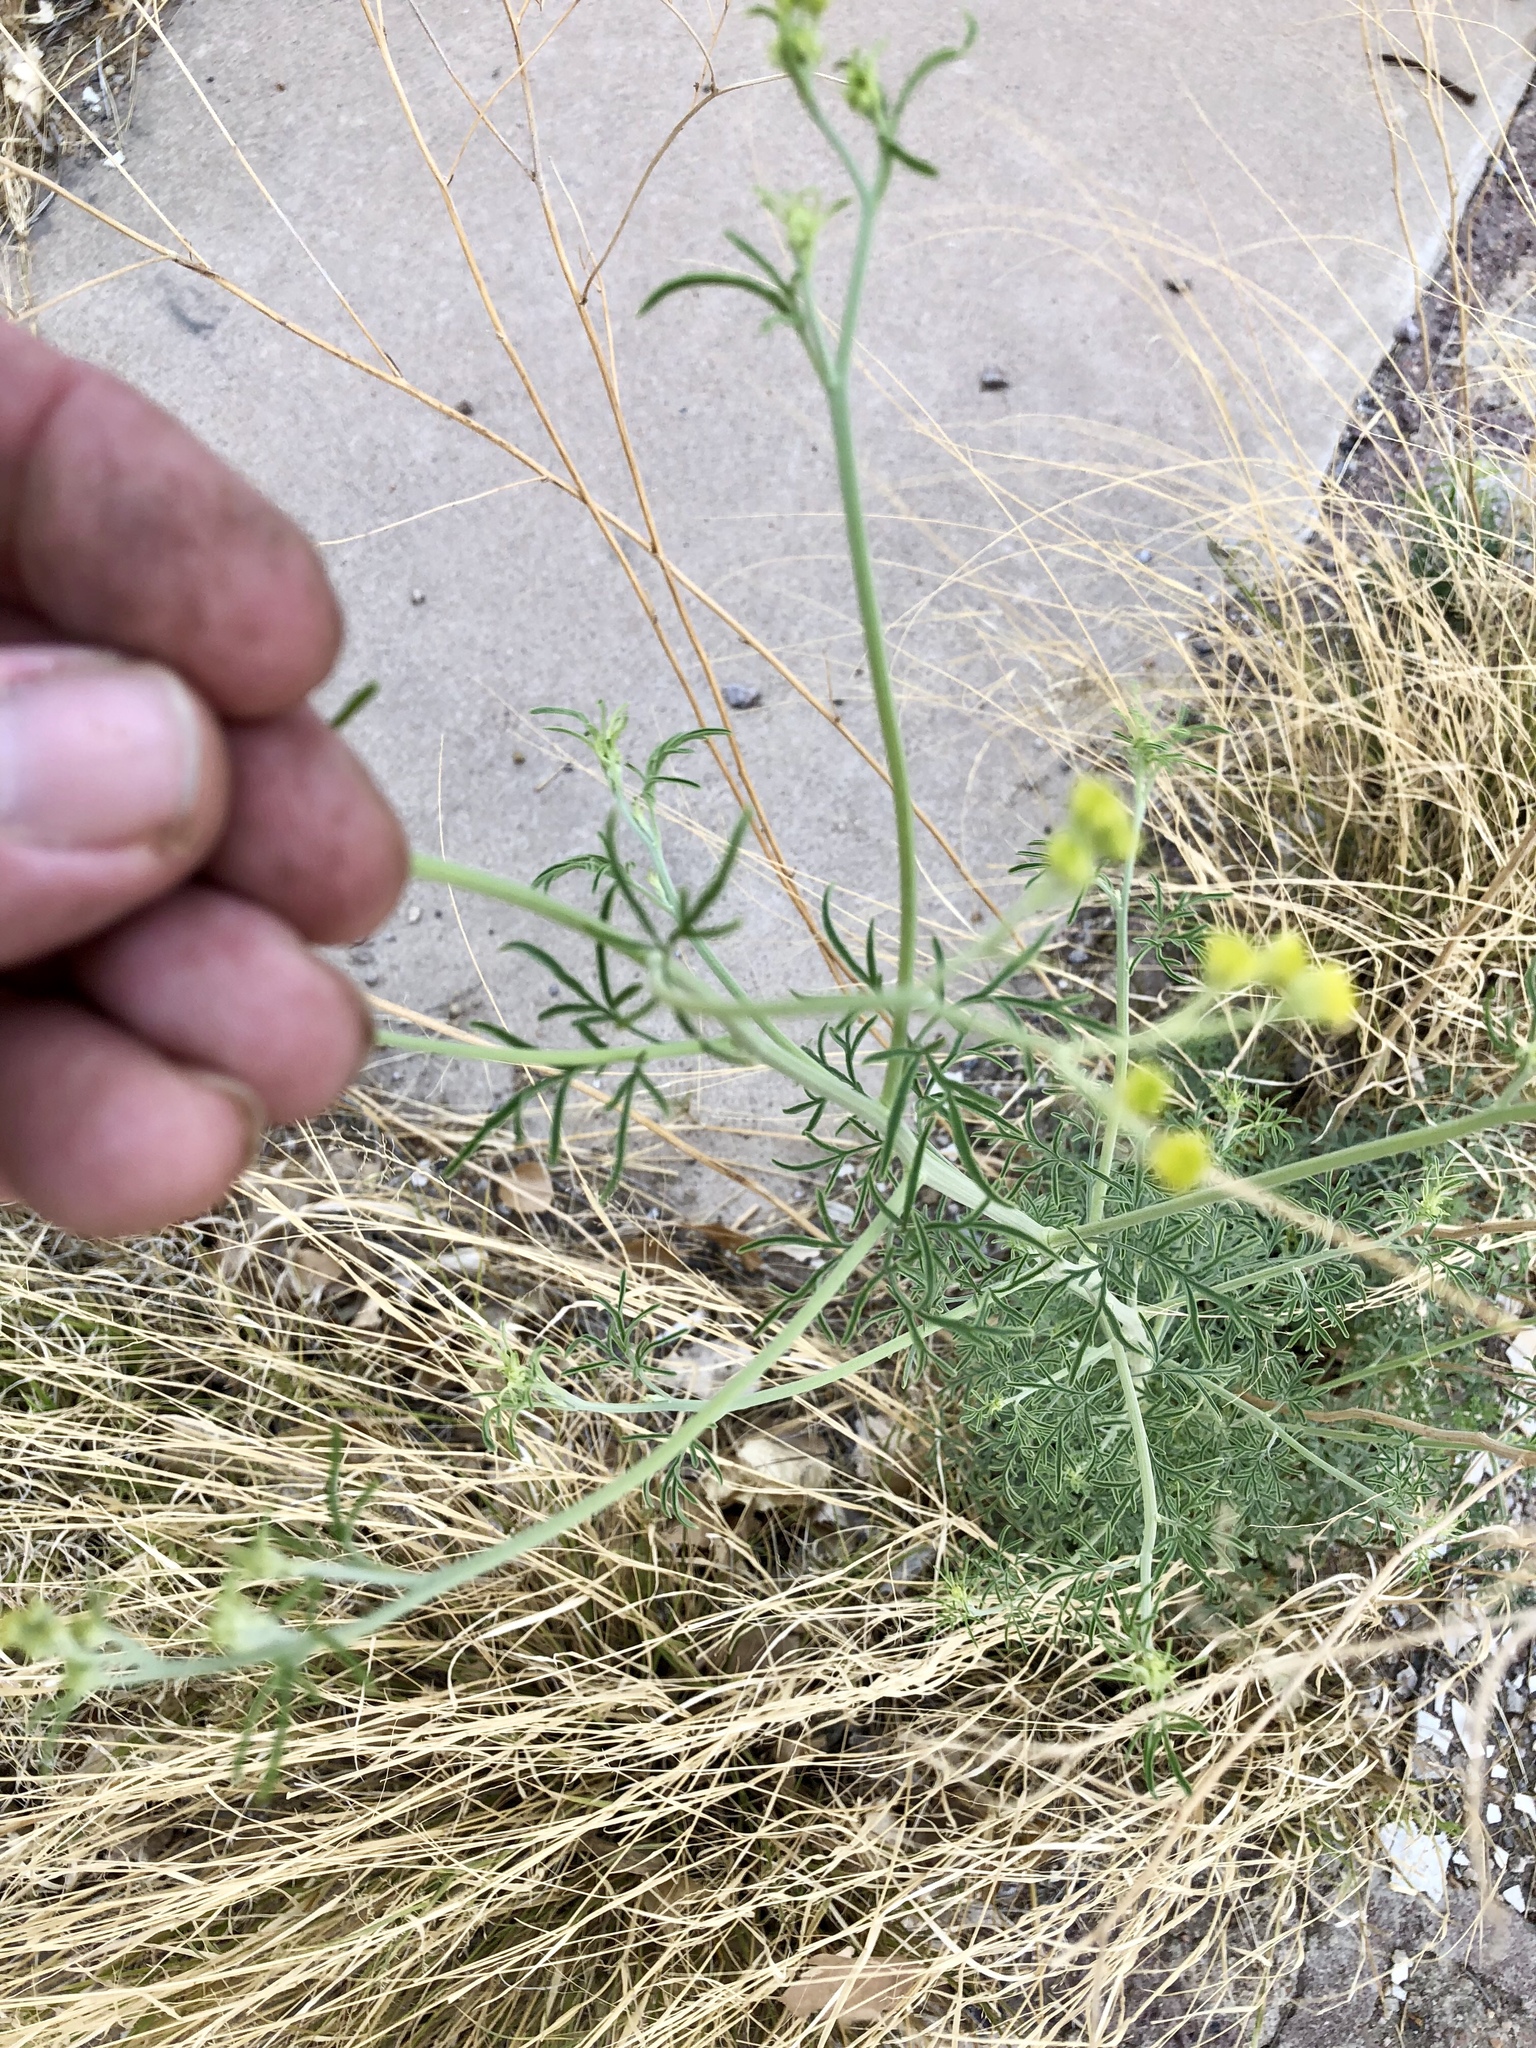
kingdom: Plantae
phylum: Tracheophyta
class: Magnoliopsida
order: Asterales
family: Asteraceae
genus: Hymenothrix
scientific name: Hymenothrix wislizeni
